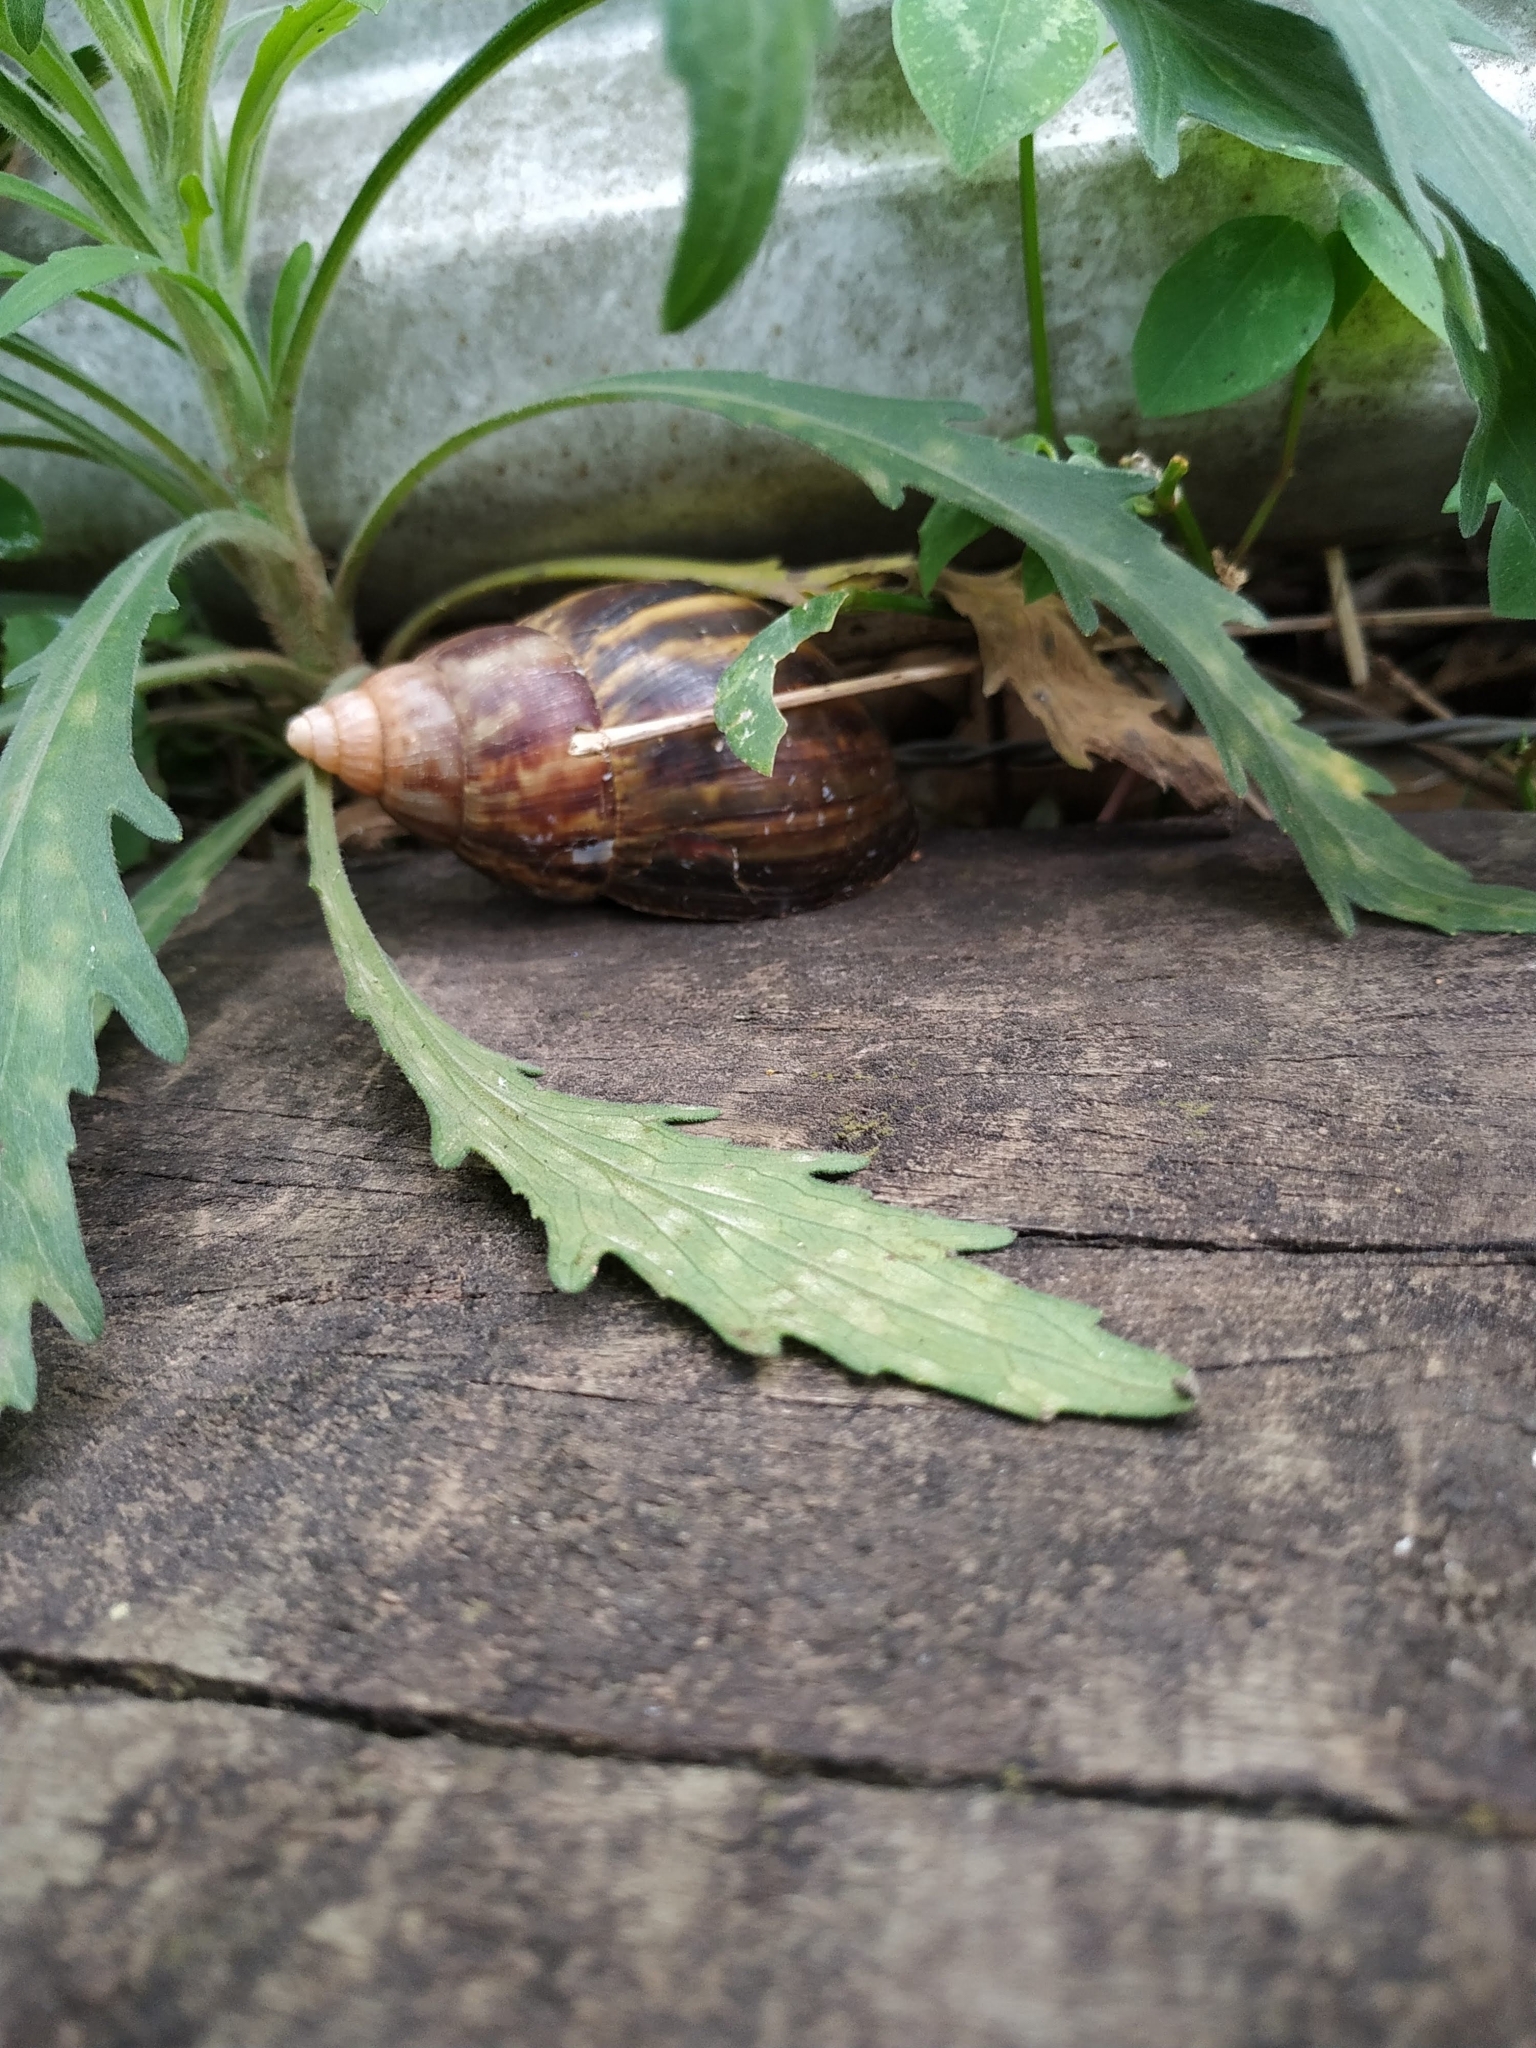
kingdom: Animalia
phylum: Mollusca
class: Gastropoda
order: Stylommatophora
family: Achatinidae
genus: Lissachatina
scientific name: Lissachatina fulica
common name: Giant african snail
